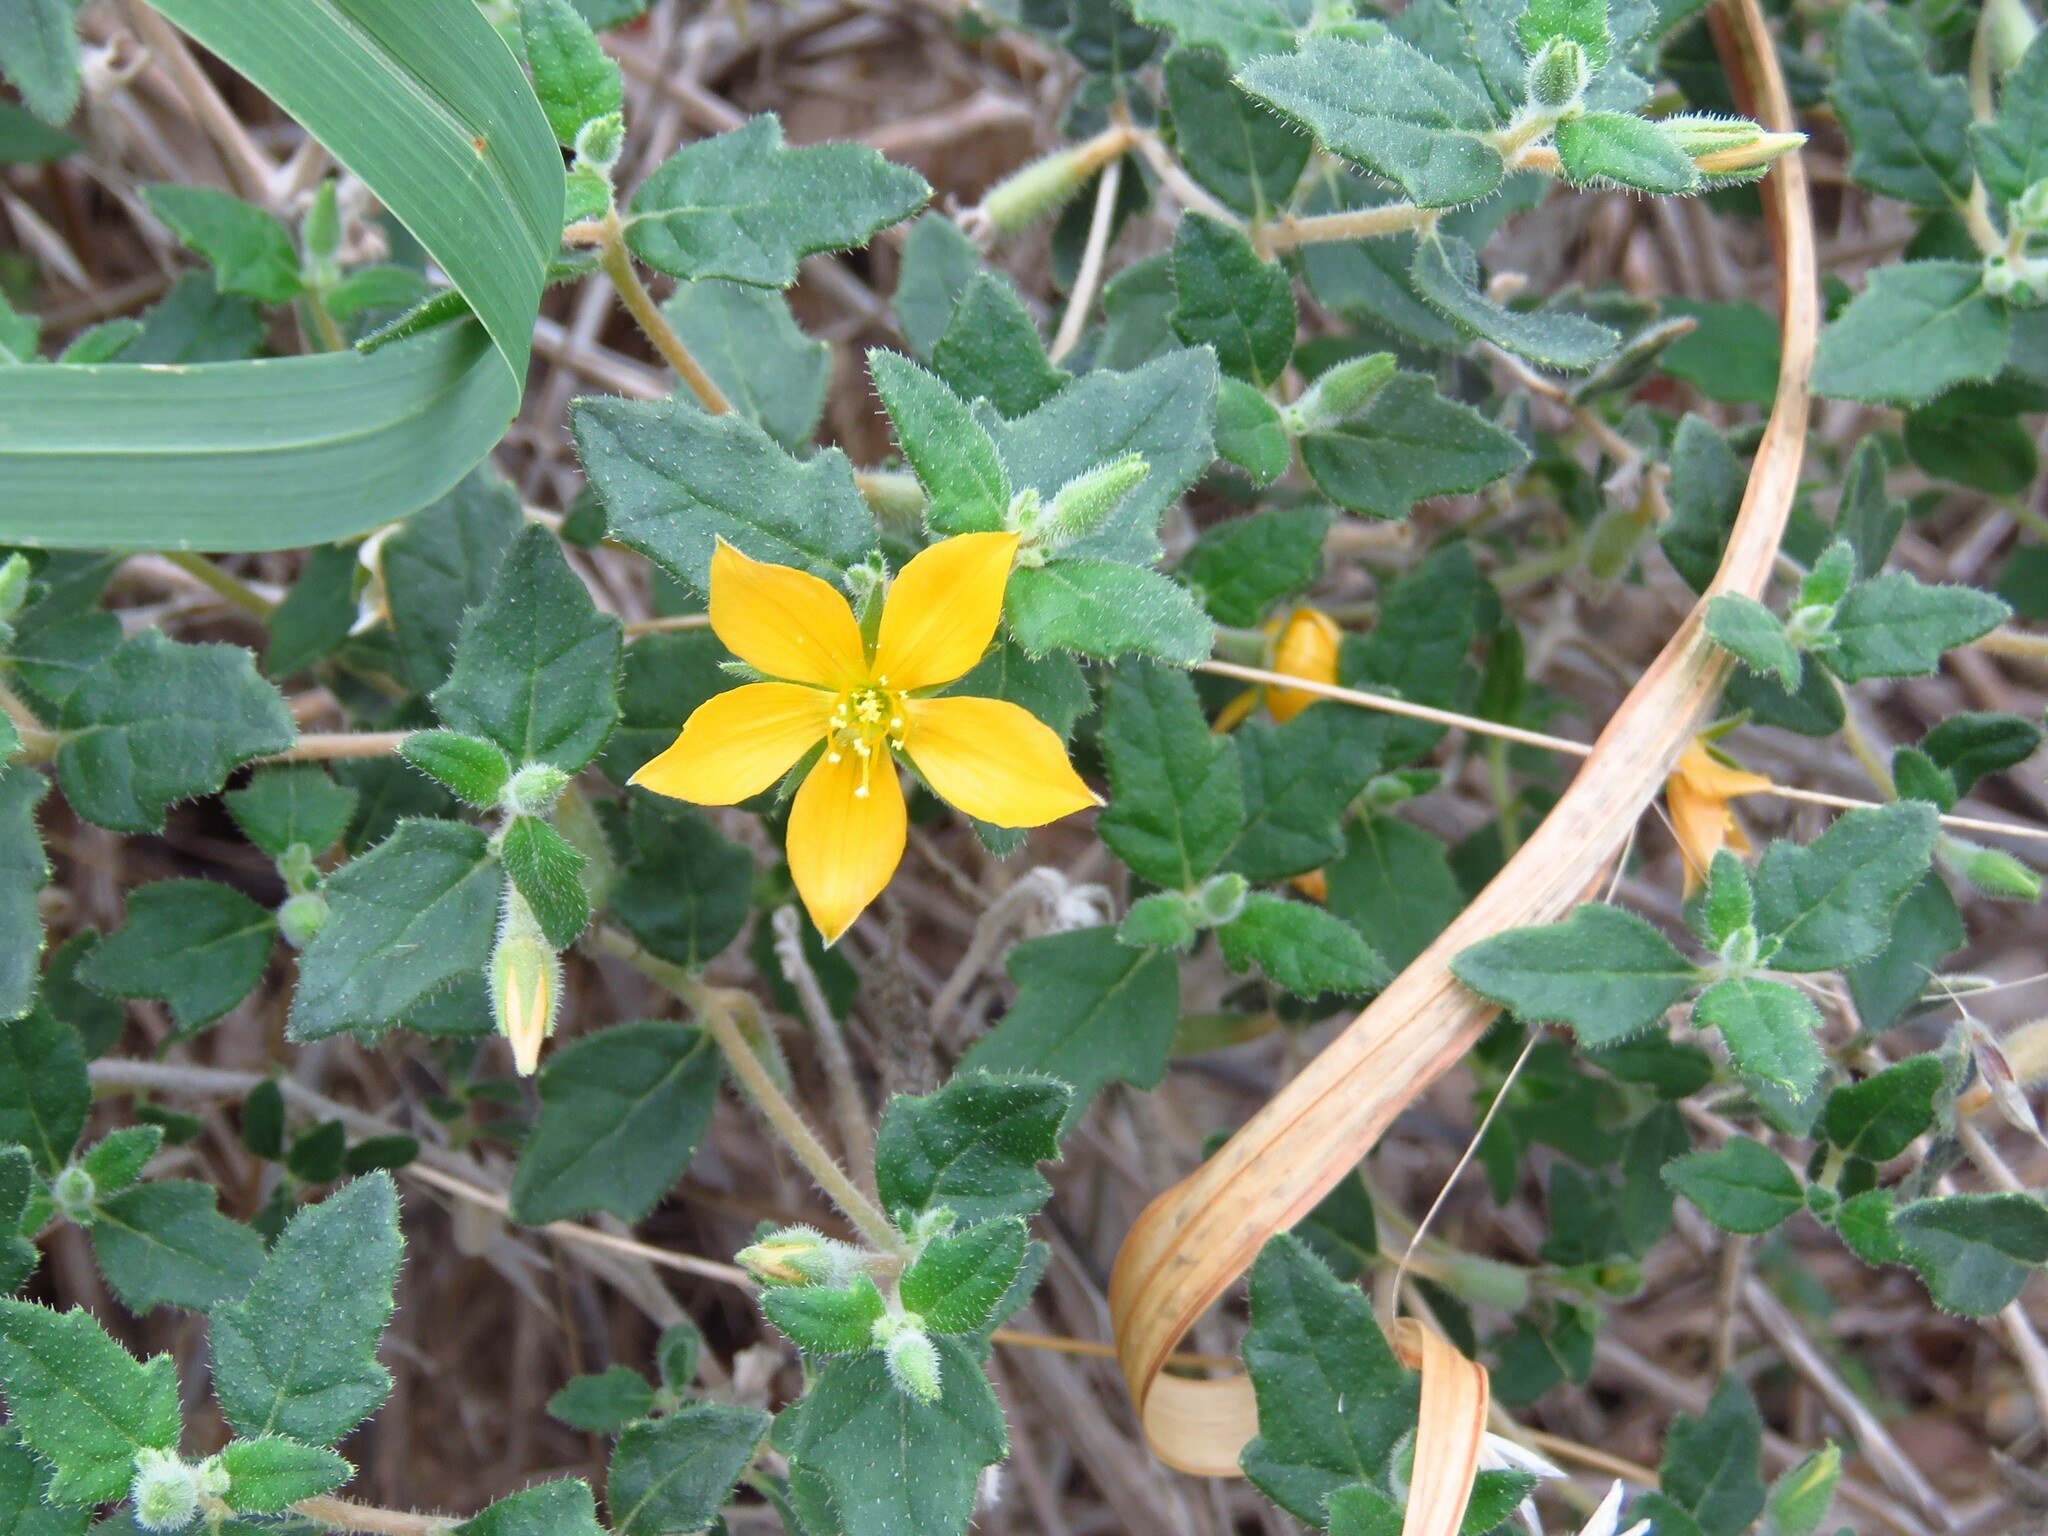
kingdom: Plantae
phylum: Tracheophyta
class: Magnoliopsida
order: Cornales
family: Loasaceae
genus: Mentzelia
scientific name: Mentzelia oligosperma
